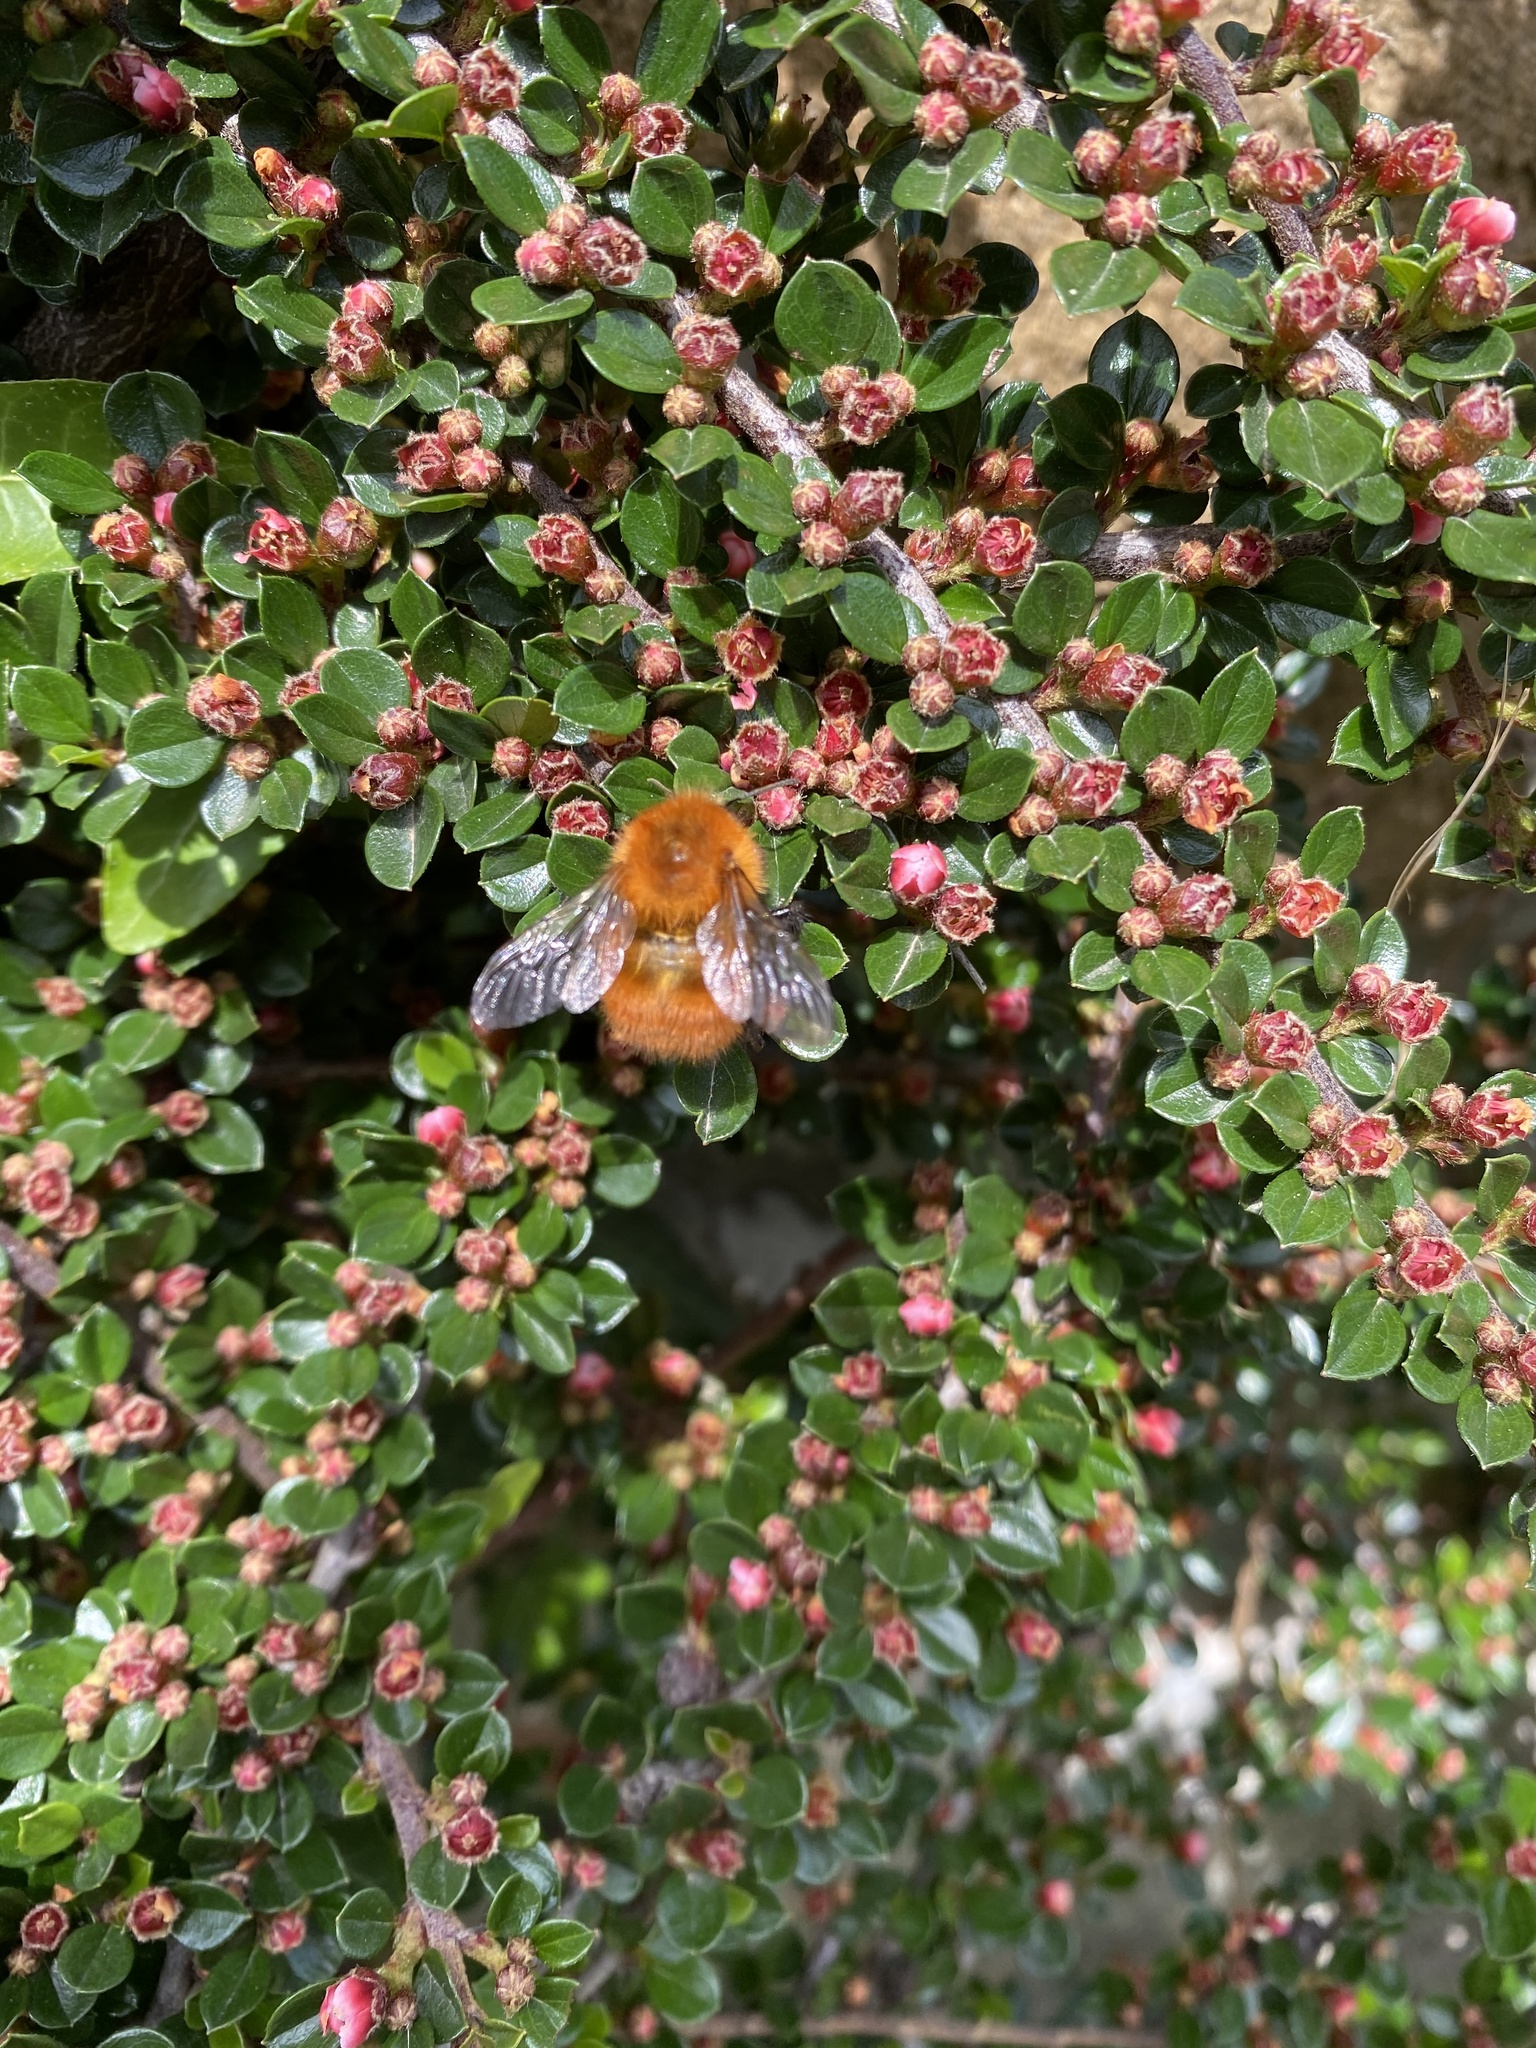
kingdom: Animalia
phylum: Arthropoda
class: Insecta
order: Hymenoptera
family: Apidae
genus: Bombus
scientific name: Bombus pascuorum
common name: Common carder bee
